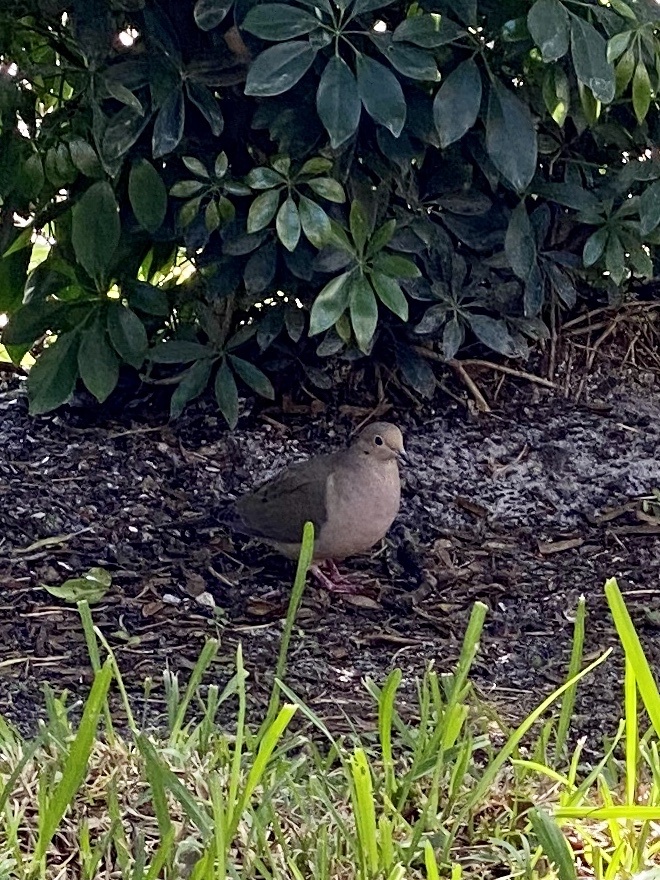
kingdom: Animalia
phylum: Chordata
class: Aves
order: Columbiformes
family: Columbidae
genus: Zenaida
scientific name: Zenaida macroura
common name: Mourning dove
